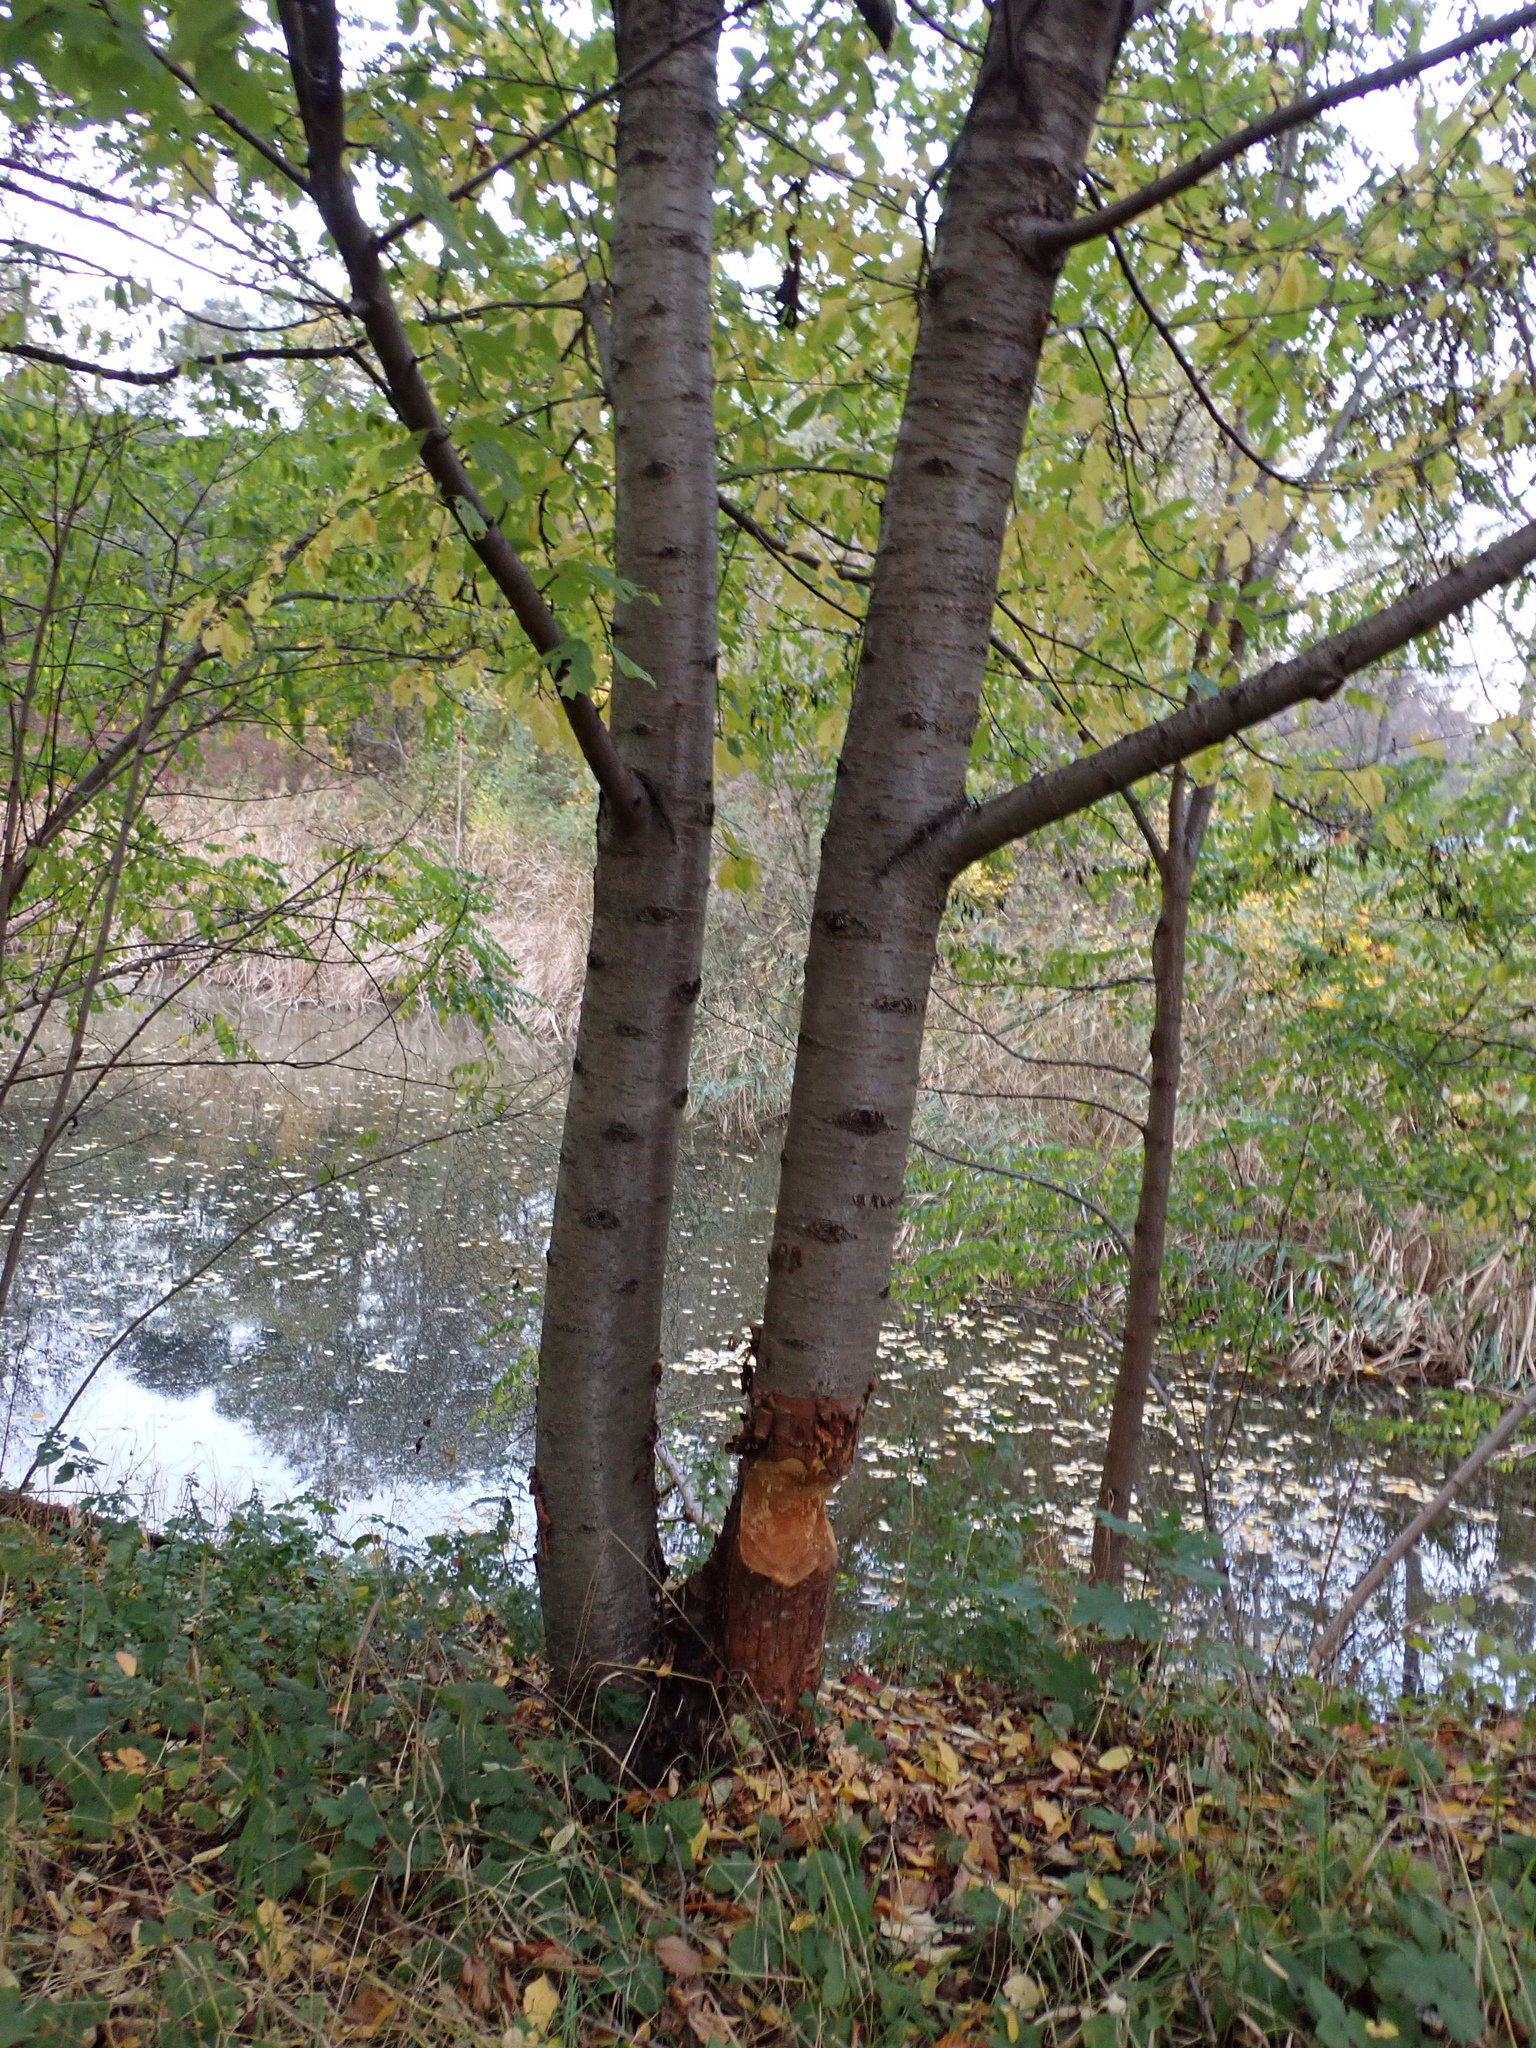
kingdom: Animalia
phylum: Chordata
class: Mammalia
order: Rodentia
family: Castoridae
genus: Castor
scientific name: Castor fiber
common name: Eurasian beaver
